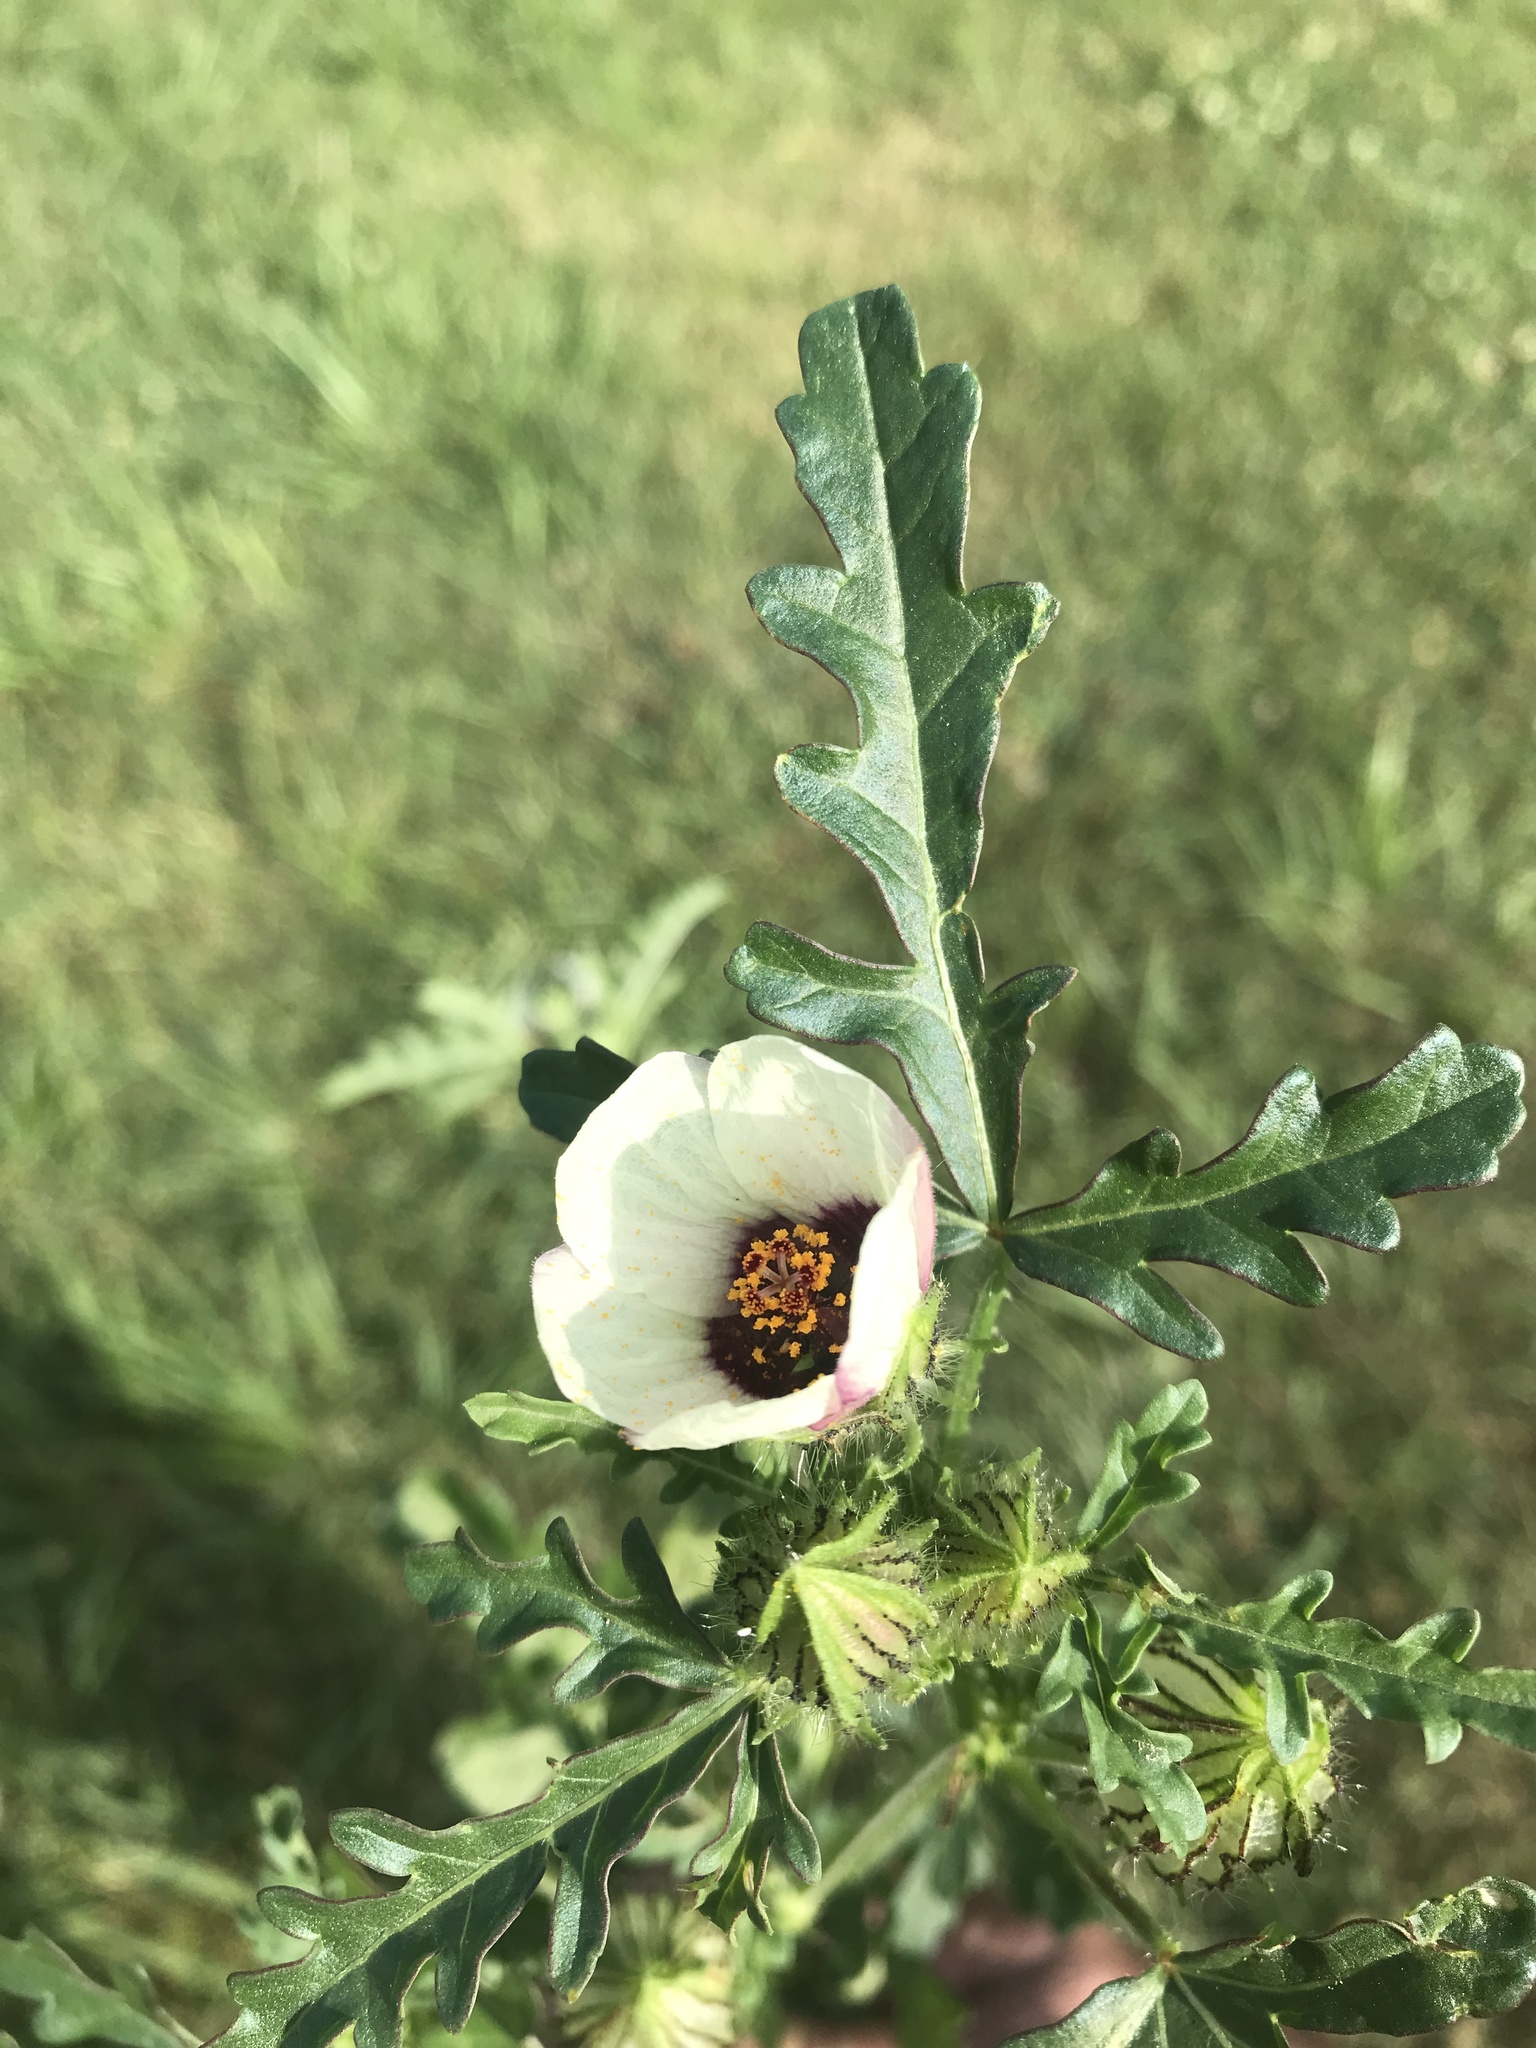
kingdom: Plantae
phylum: Tracheophyta
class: Magnoliopsida
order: Malvales
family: Malvaceae
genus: Hibiscus
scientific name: Hibiscus trionum
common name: Bladder ketmia
